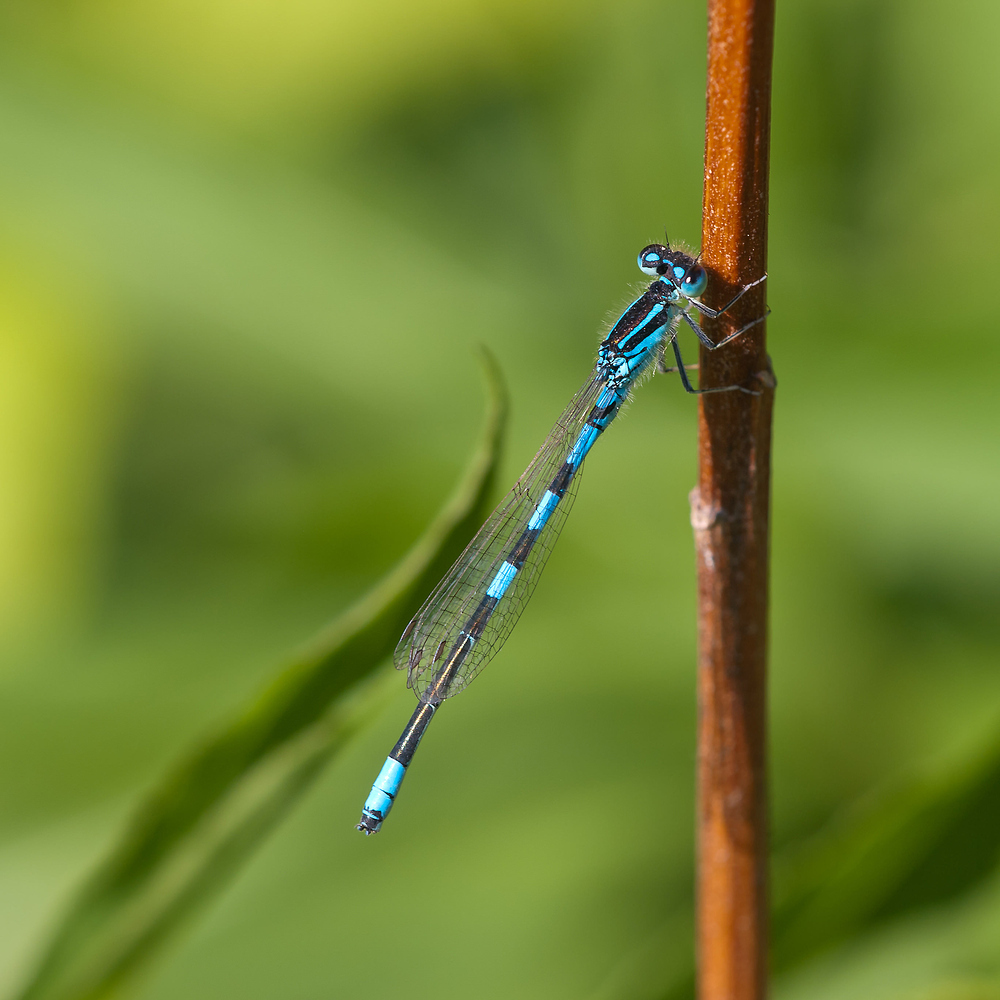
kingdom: Animalia
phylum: Arthropoda
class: Insecta
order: Odonata
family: Coenagrionidae
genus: Coenagrion
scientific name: Coenagrion scitulum
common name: Dainty bluet
